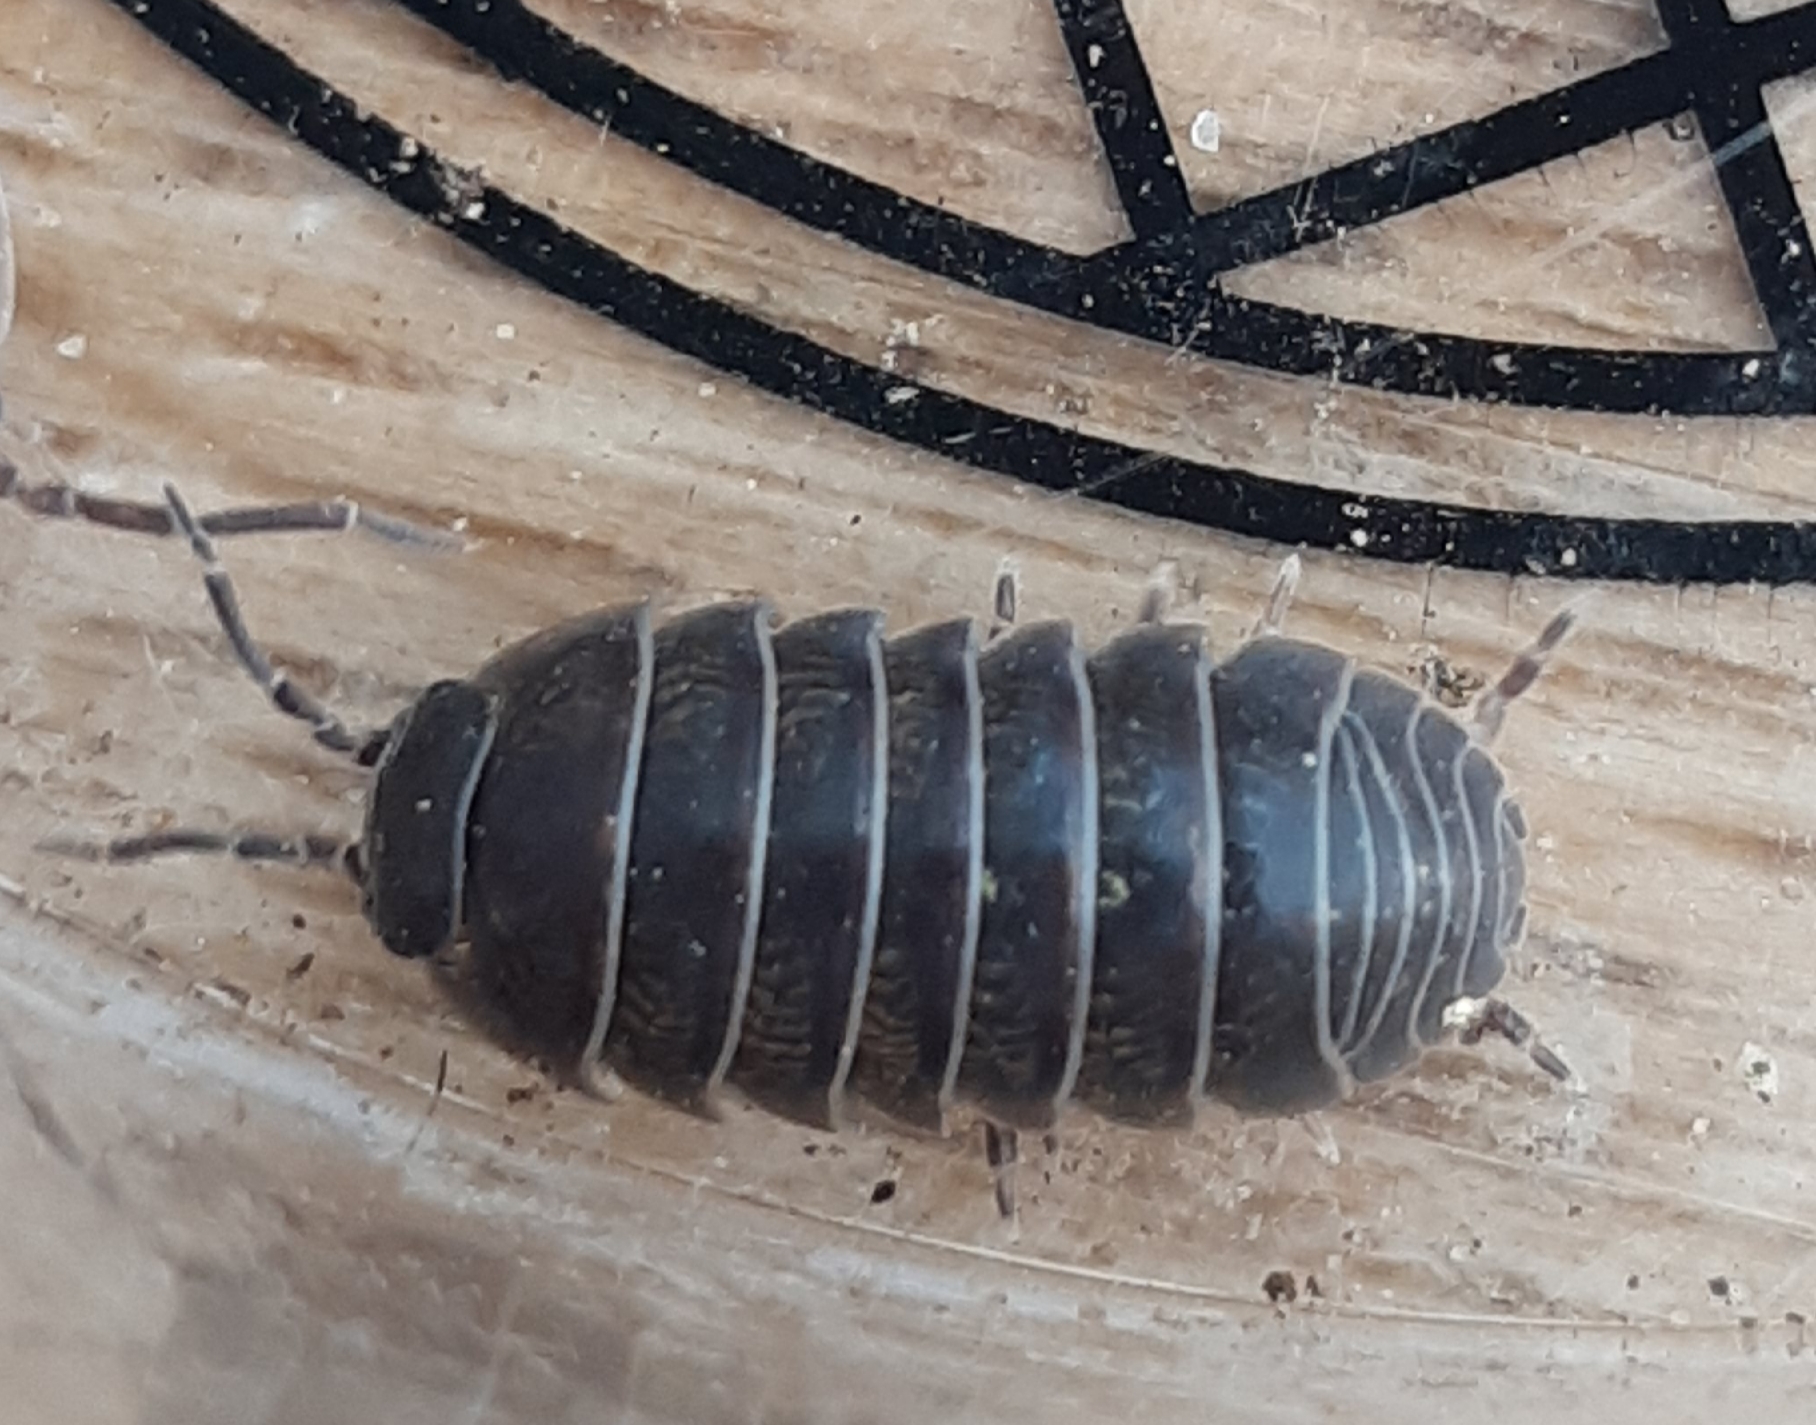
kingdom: Animalia
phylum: Arthropoda
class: Malacostraca
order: Isopoda
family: Armadillidiidae
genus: Armadillidium
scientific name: Armadillidium vulgare
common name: Common pill woodlouse
